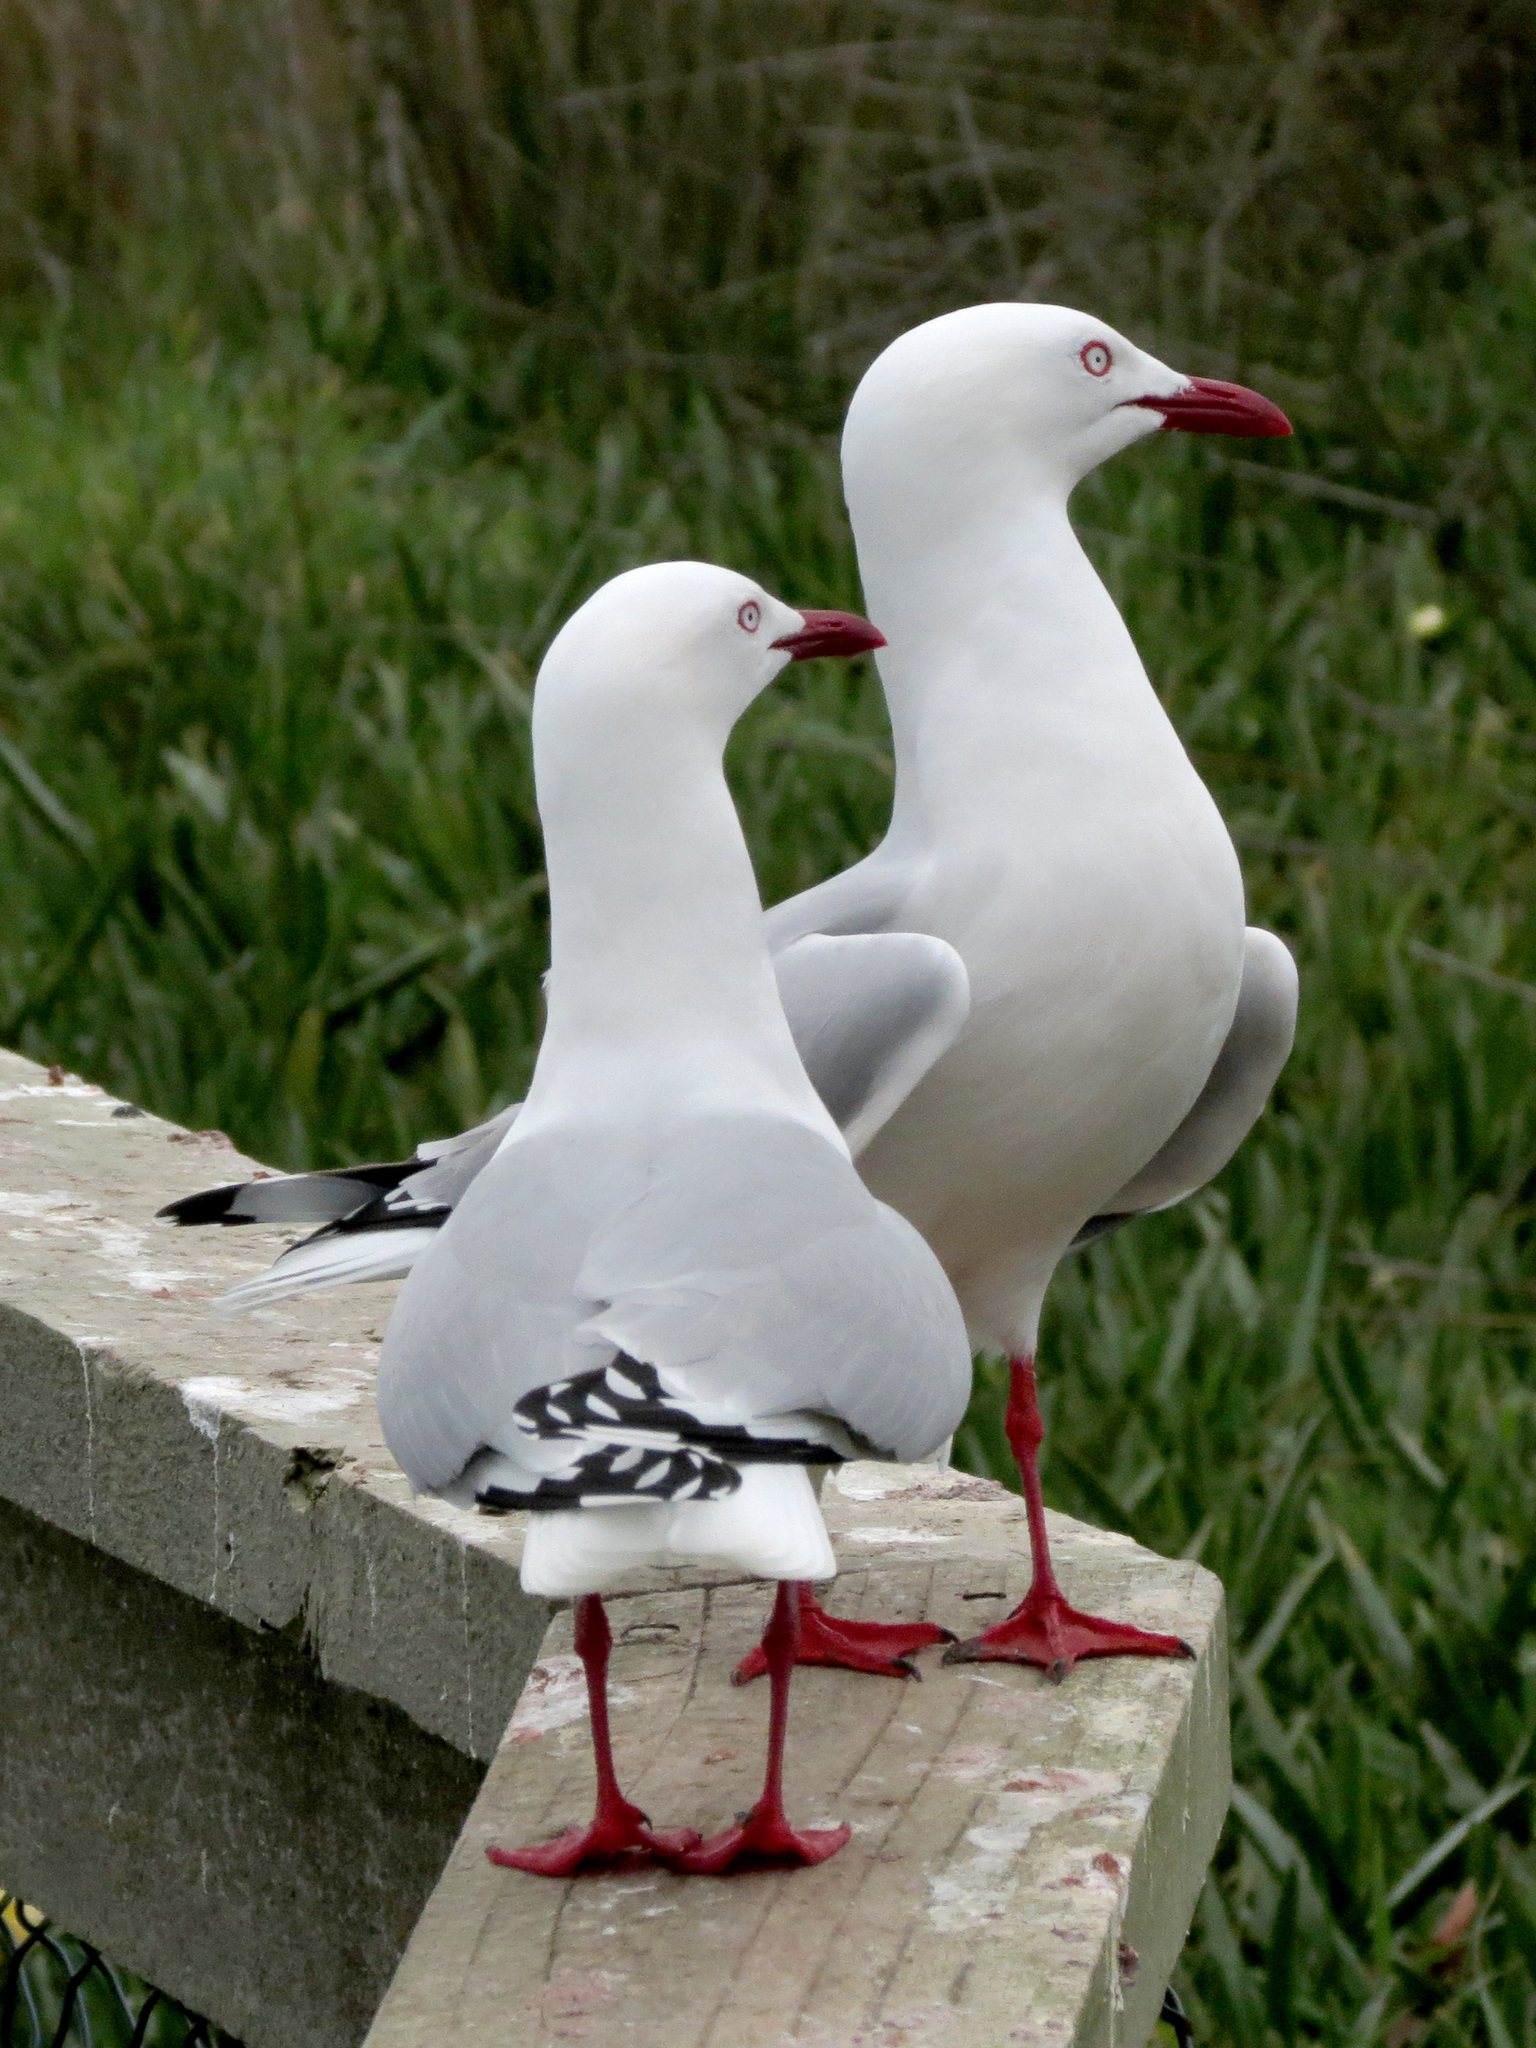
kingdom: Animalia
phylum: Chordata
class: Aves
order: Charadriiformes
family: Laridae
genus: Chroicocephalus
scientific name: Chroicocephalus novaehollandiae
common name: Silver gull
